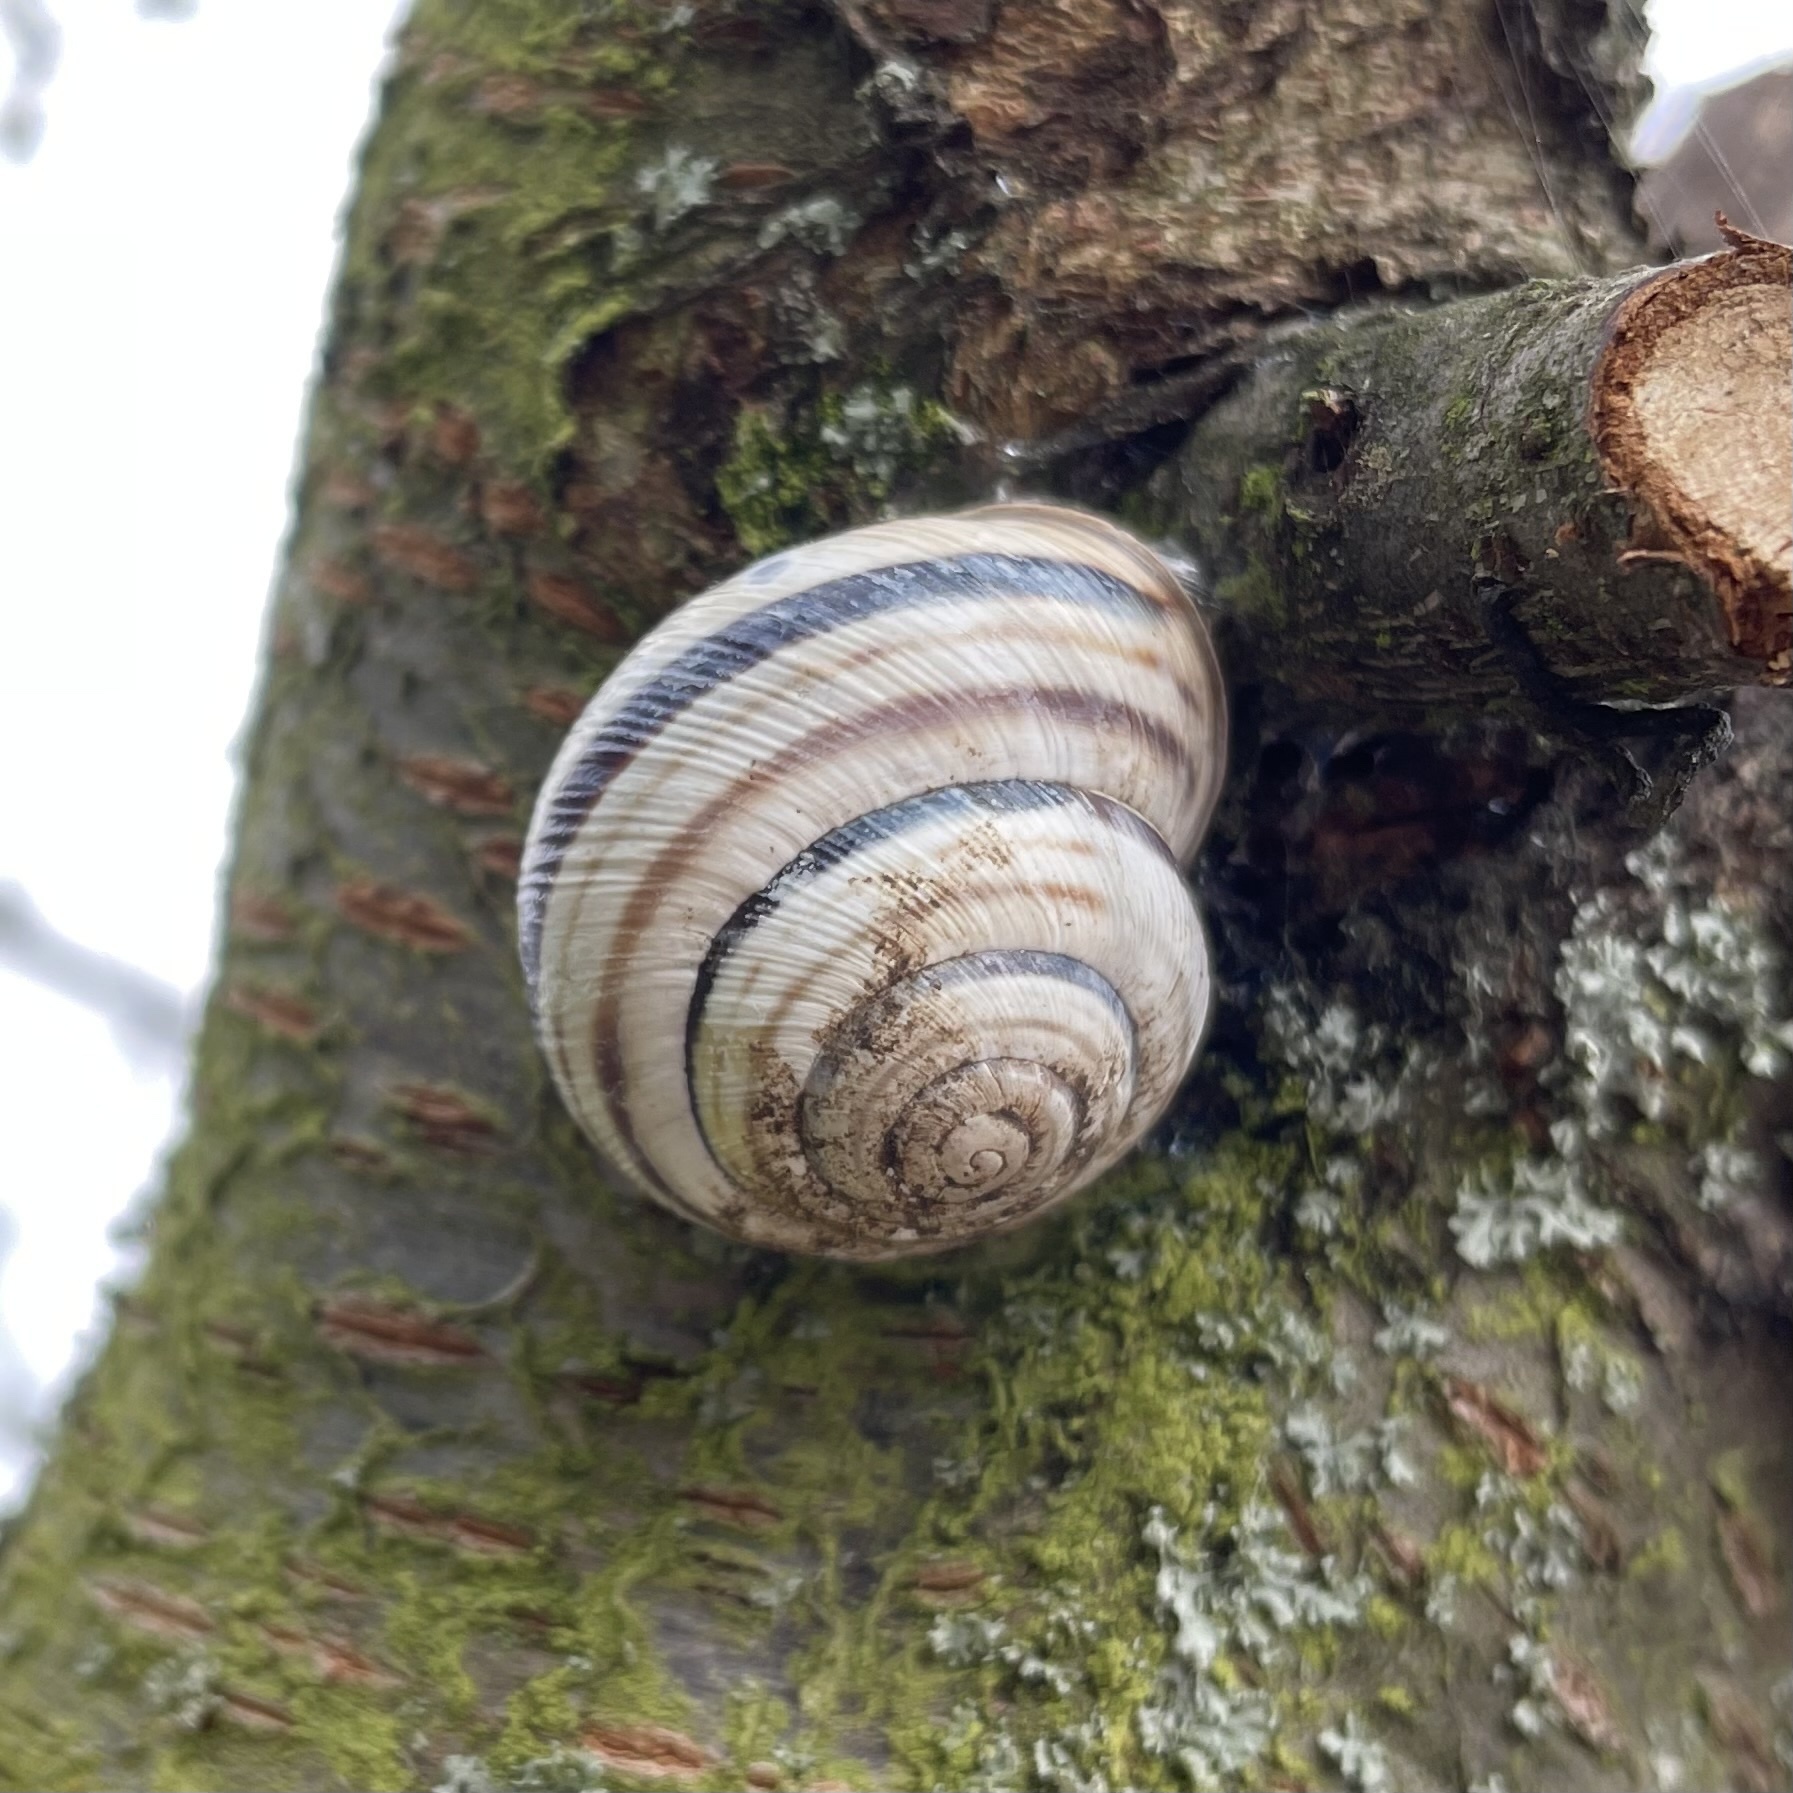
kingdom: Animalia
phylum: Mollusca
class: Gastropoda
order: Stylommatophora
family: Helicidae
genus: Caucasotachea
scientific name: Caucasotachea vindobonensis
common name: European helicid land snail
